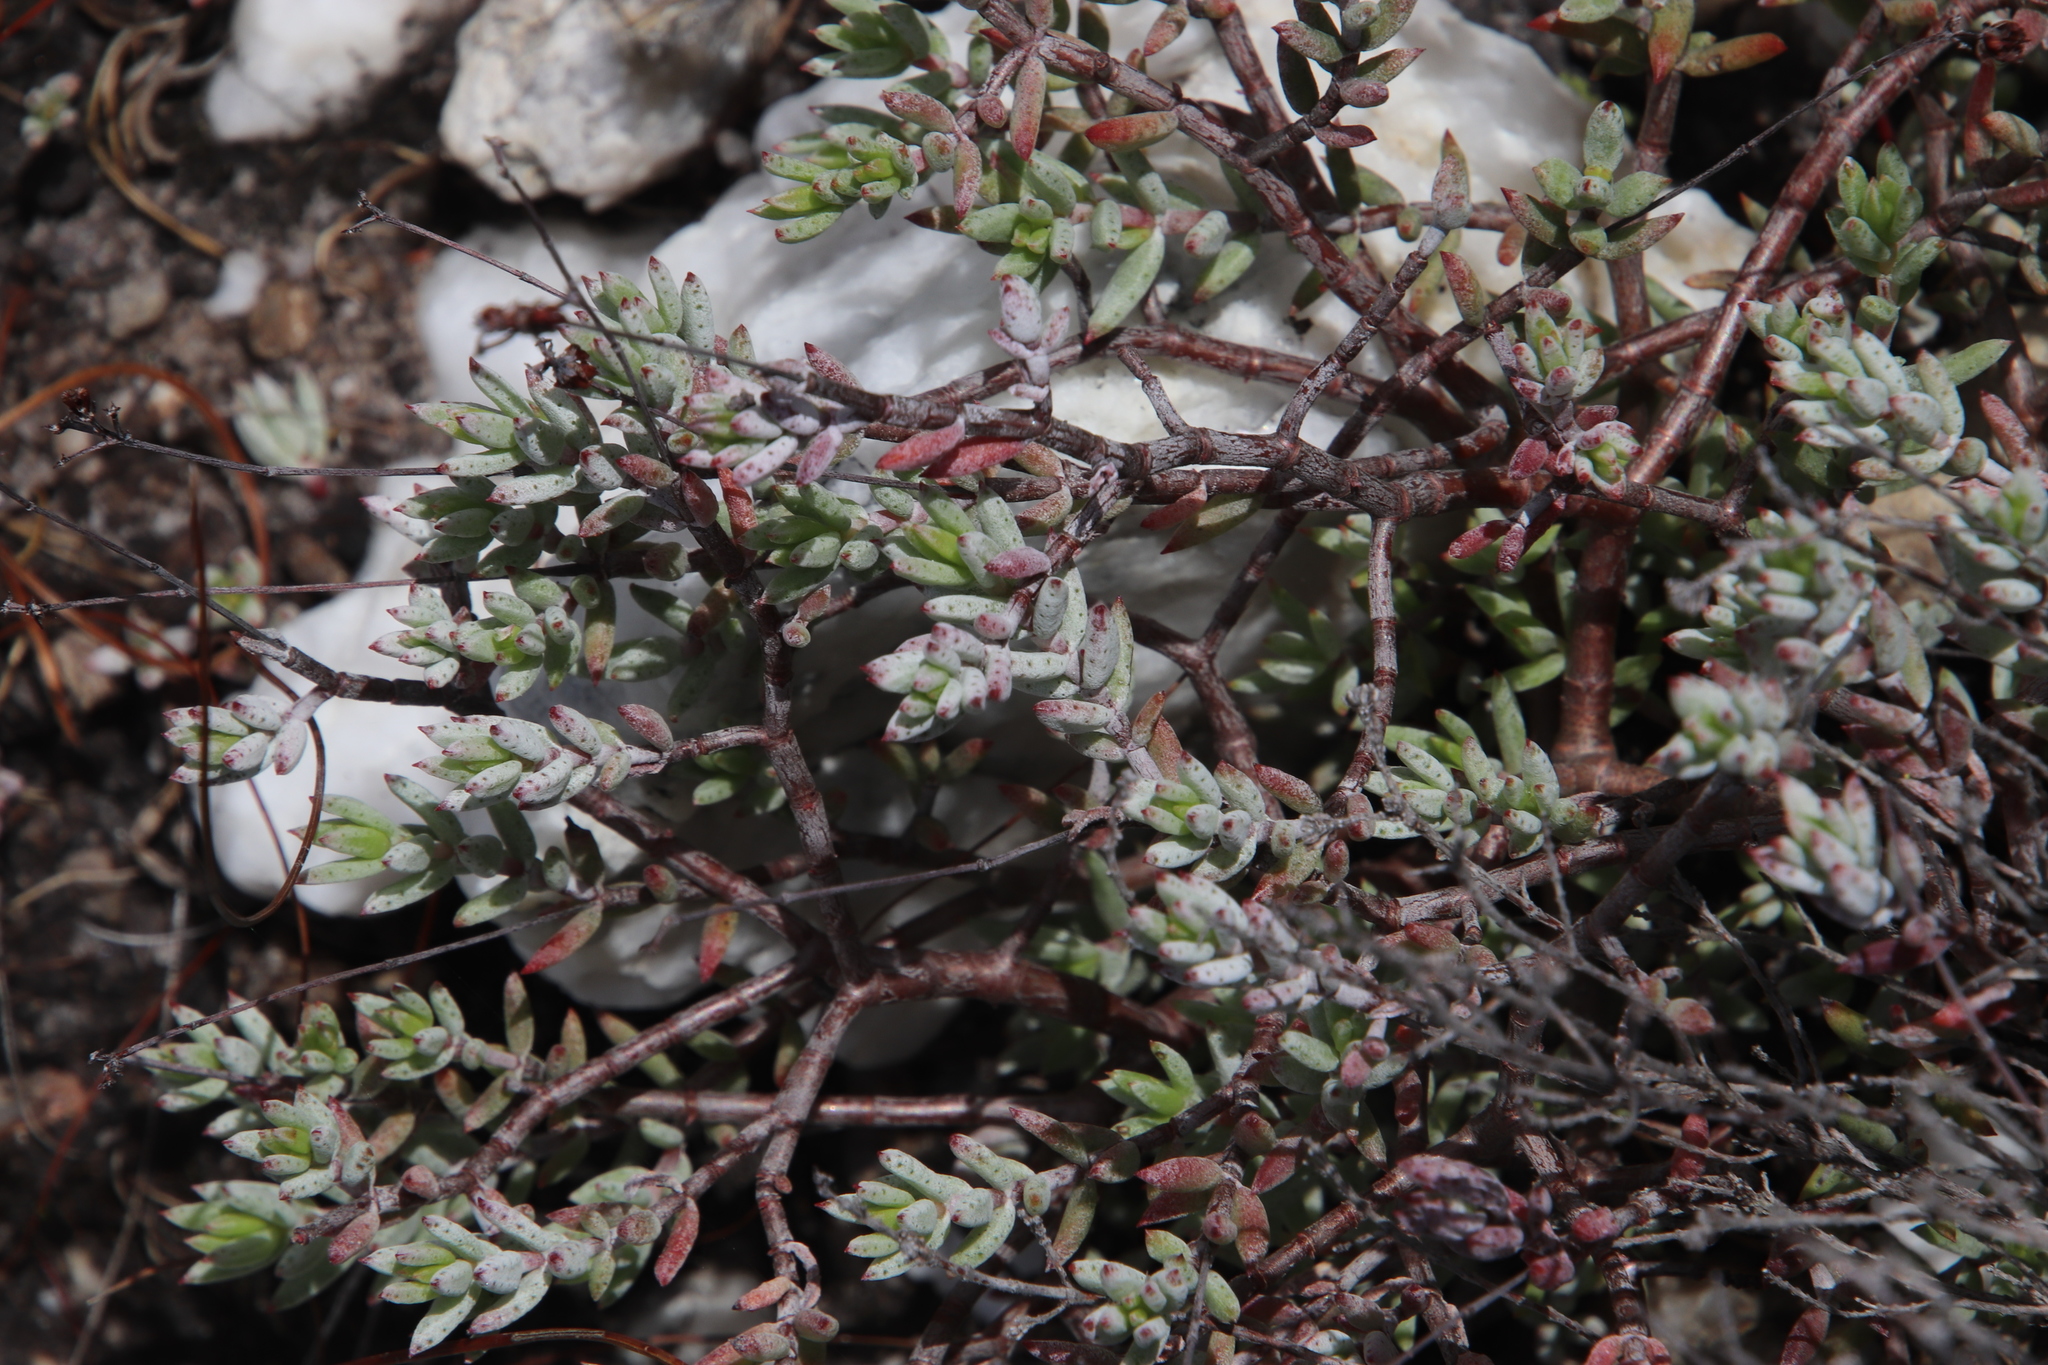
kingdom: Plantae
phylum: Tracheophyta
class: Magnoliopsida
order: Saxifragales
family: Crassulaceae
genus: Crassula
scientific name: Crassula biplanata
